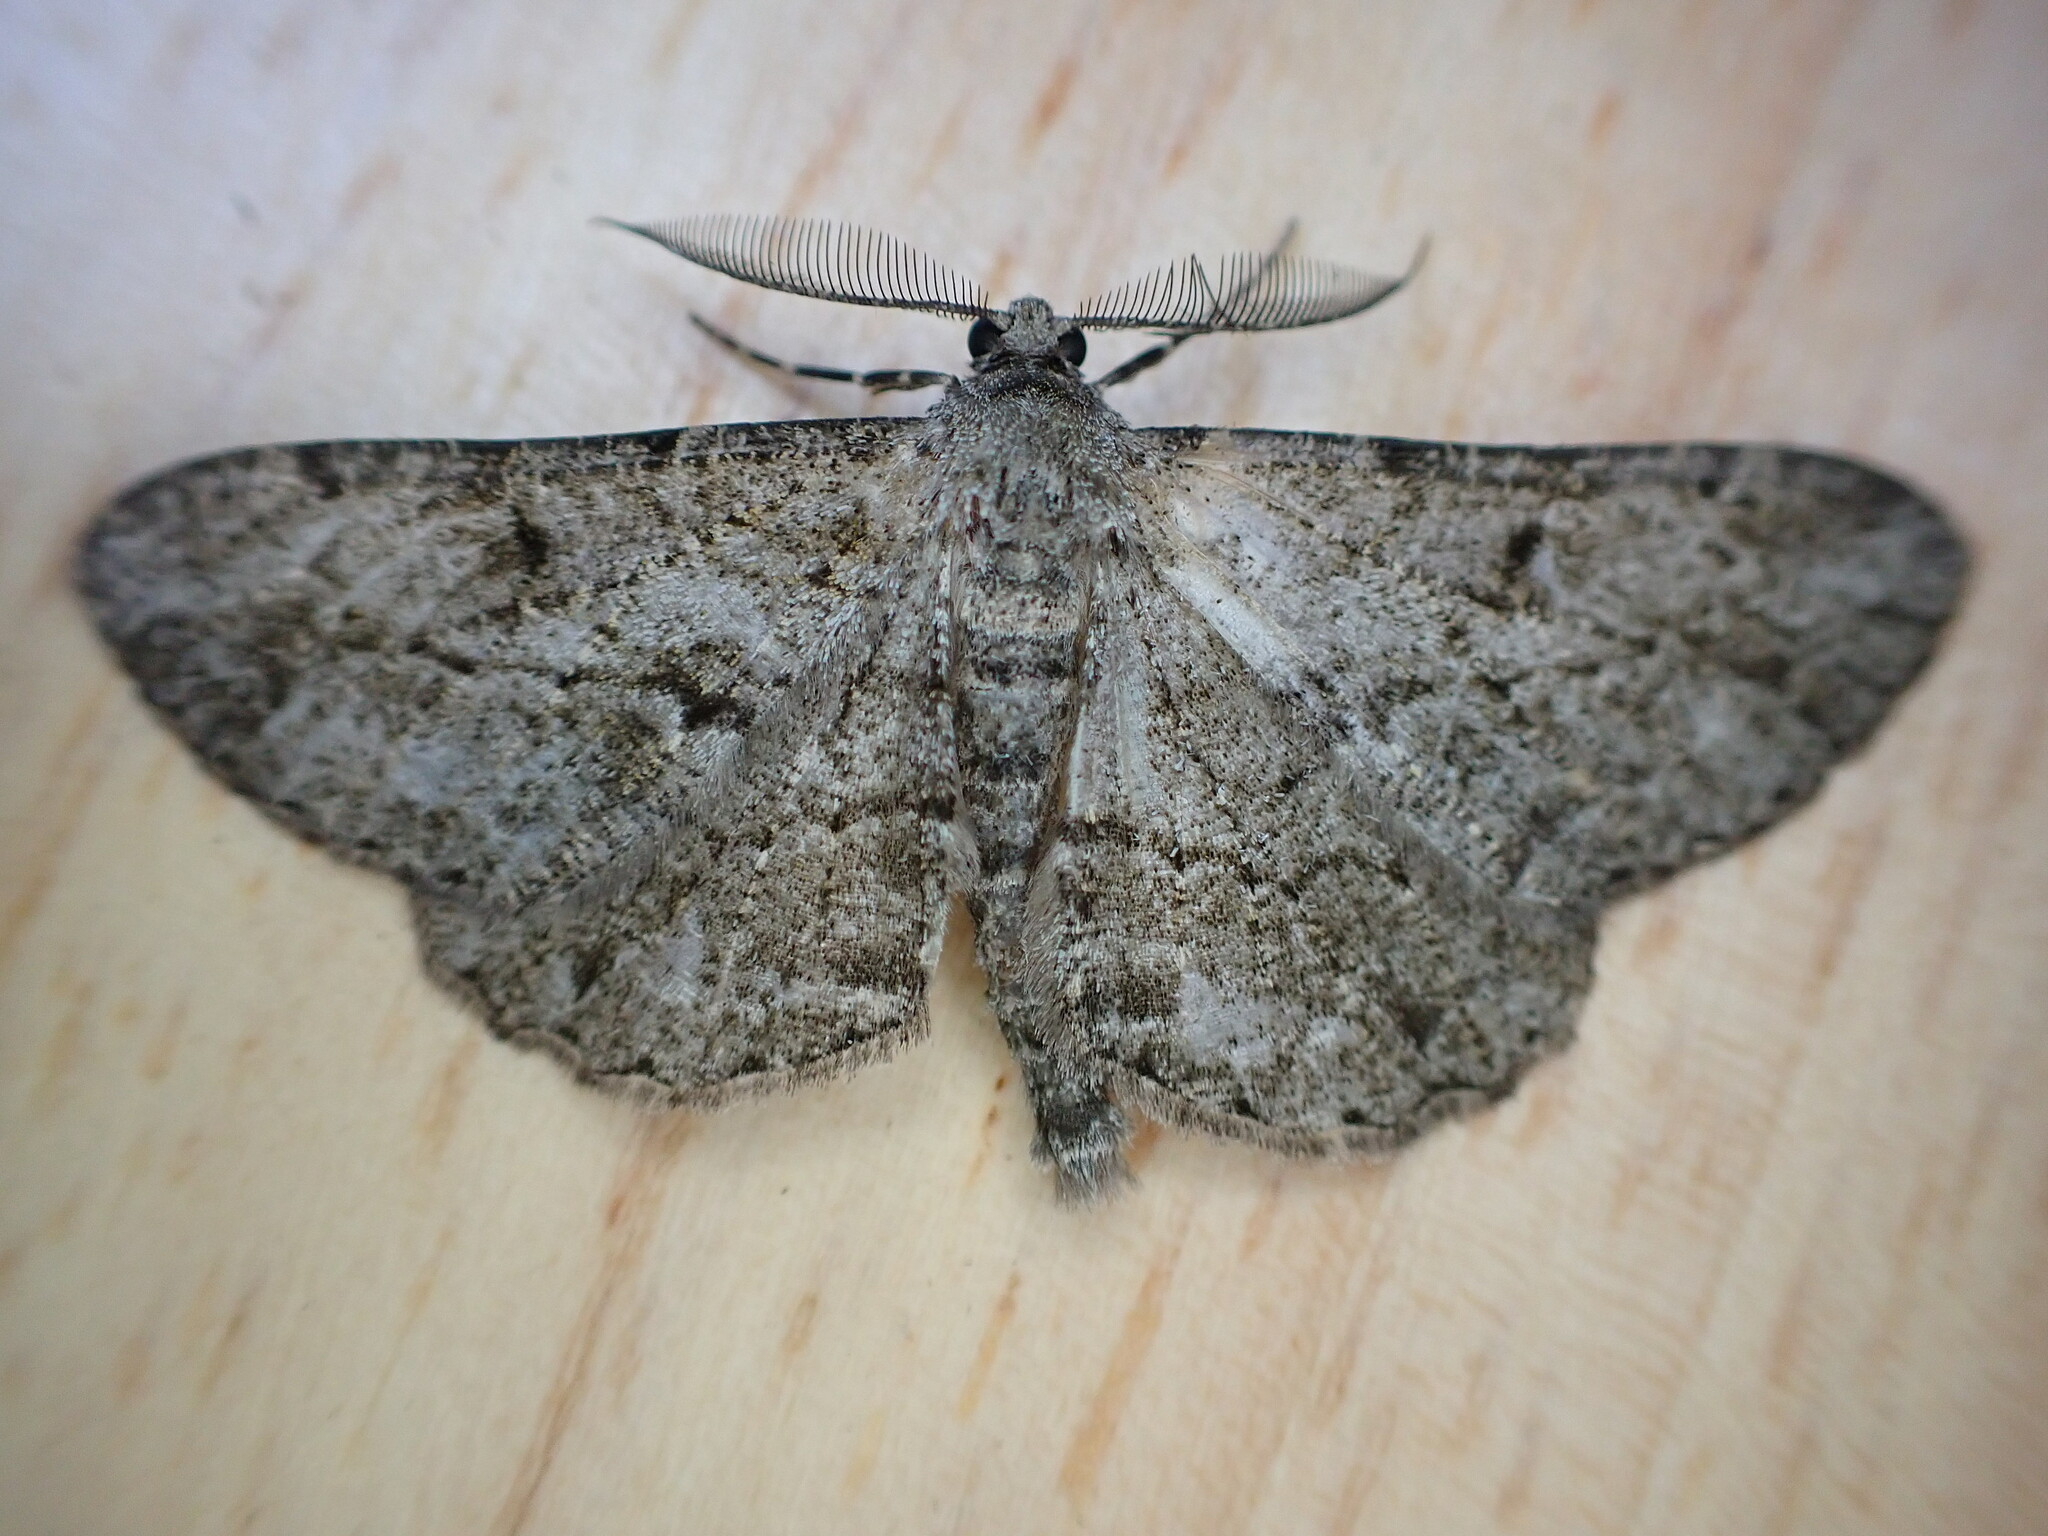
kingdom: Animalia
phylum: Arthropoda
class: Insecta
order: Lepidoptera
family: Geometridae
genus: Peribatodes
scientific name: Peribatodes rhomboidaria
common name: Willow beauty
